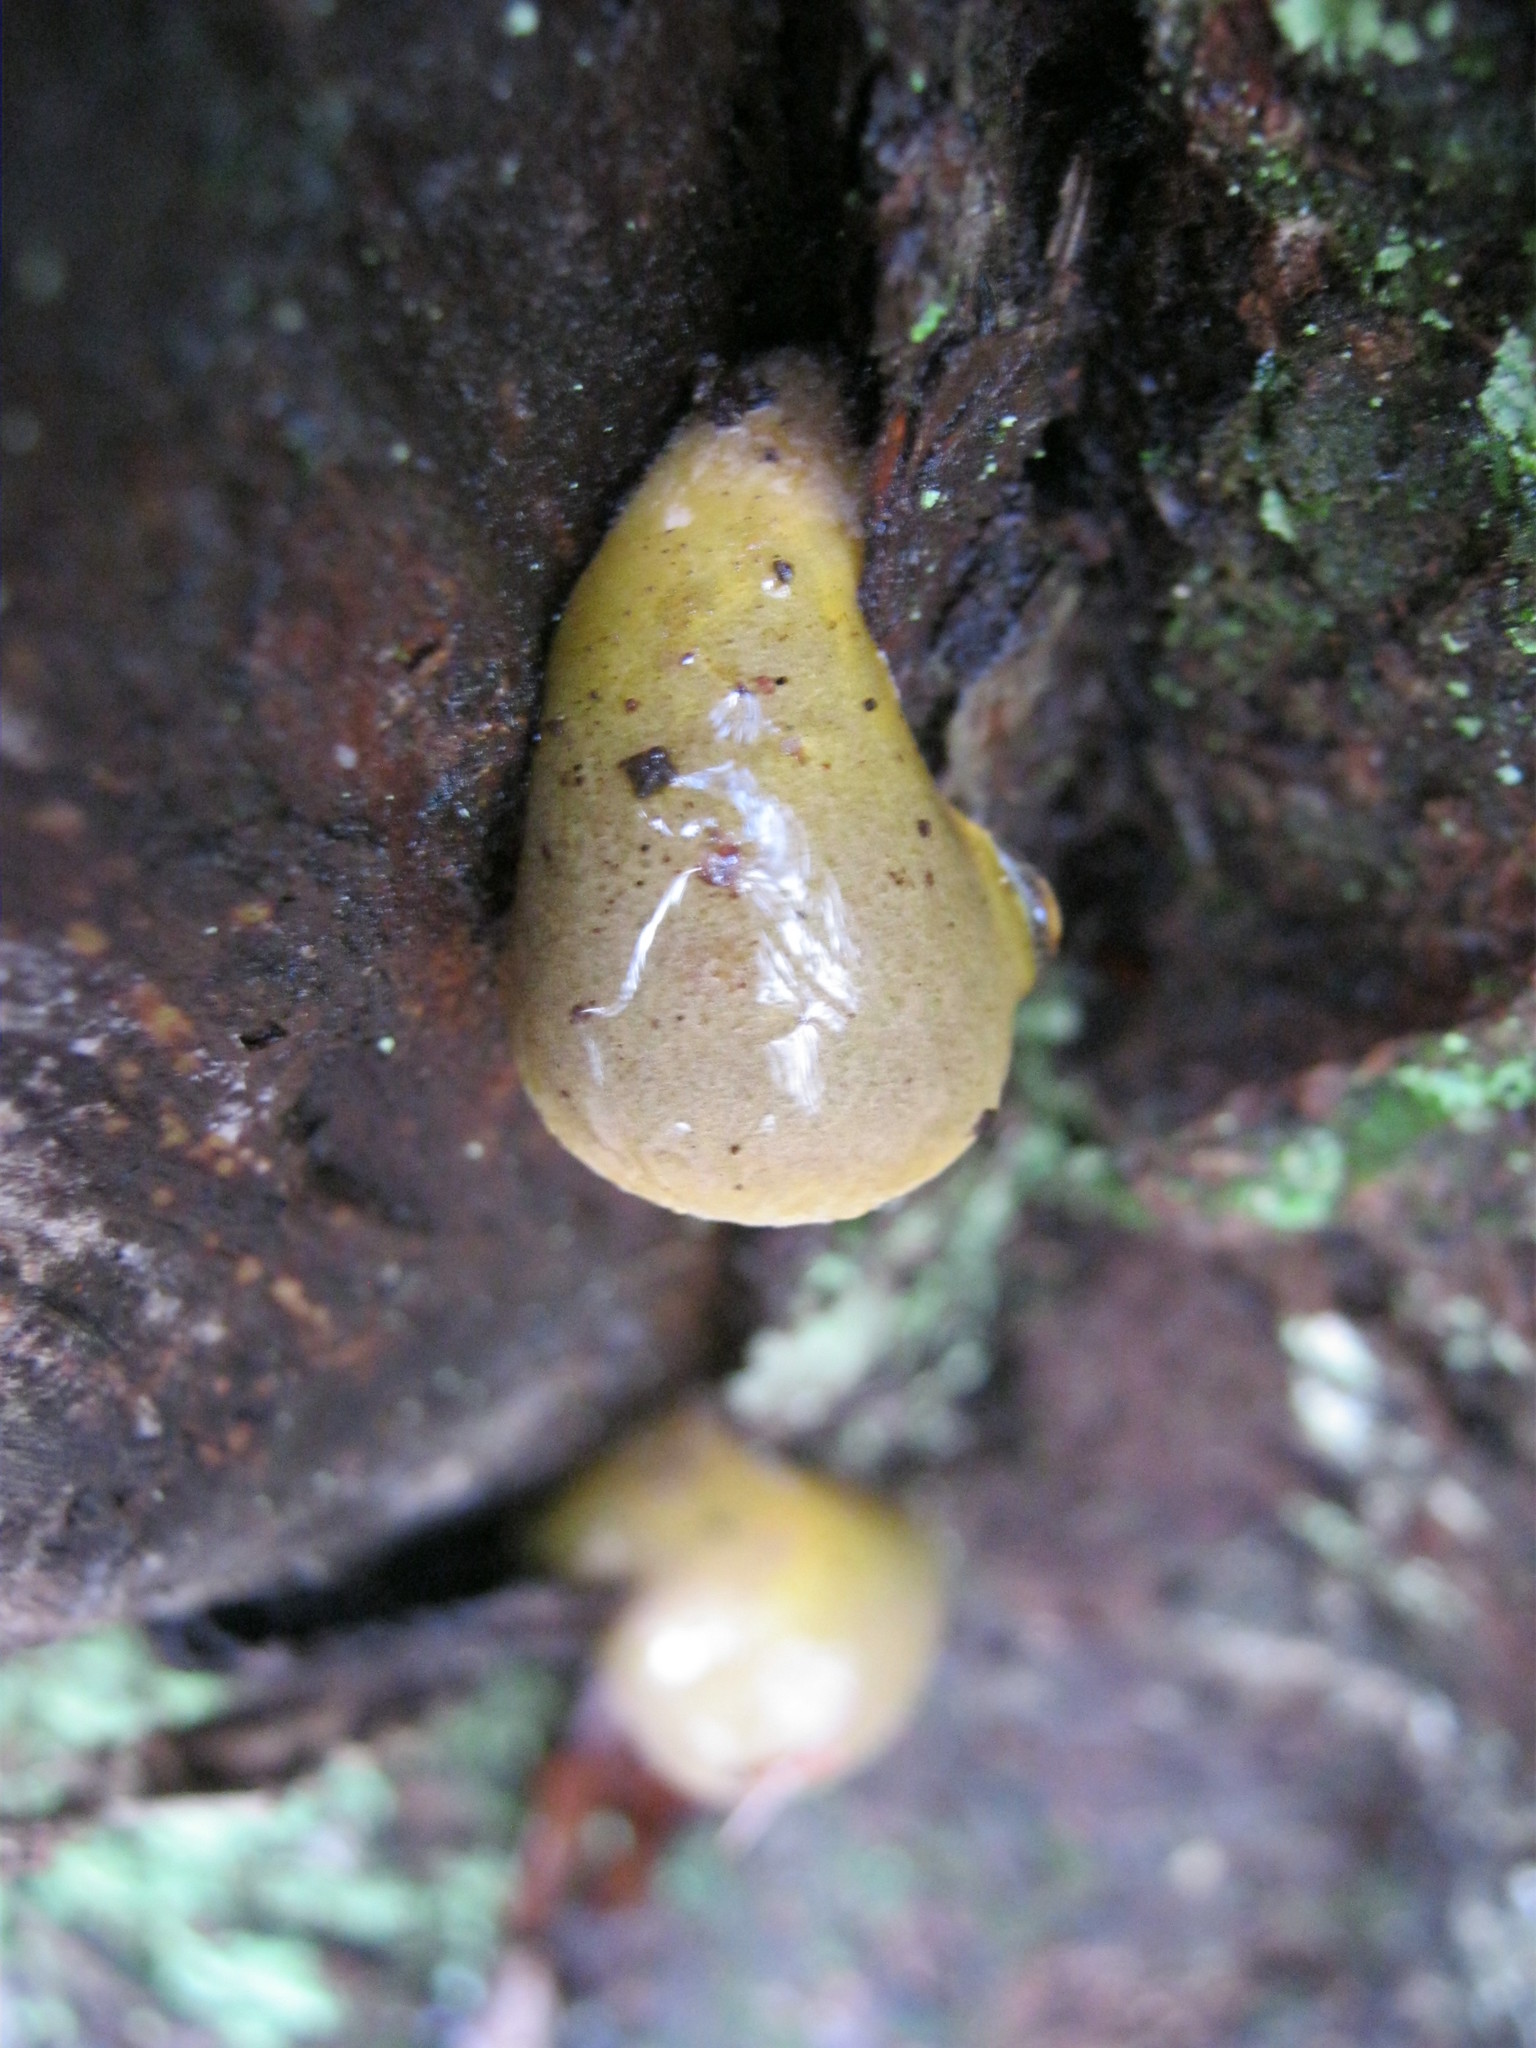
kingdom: Fungi
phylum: Basidiomycota
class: Agaricomycetes
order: Agaricales
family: Sarcomyxaceae
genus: Sarcomyxa
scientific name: Sarcomyxa serotina
